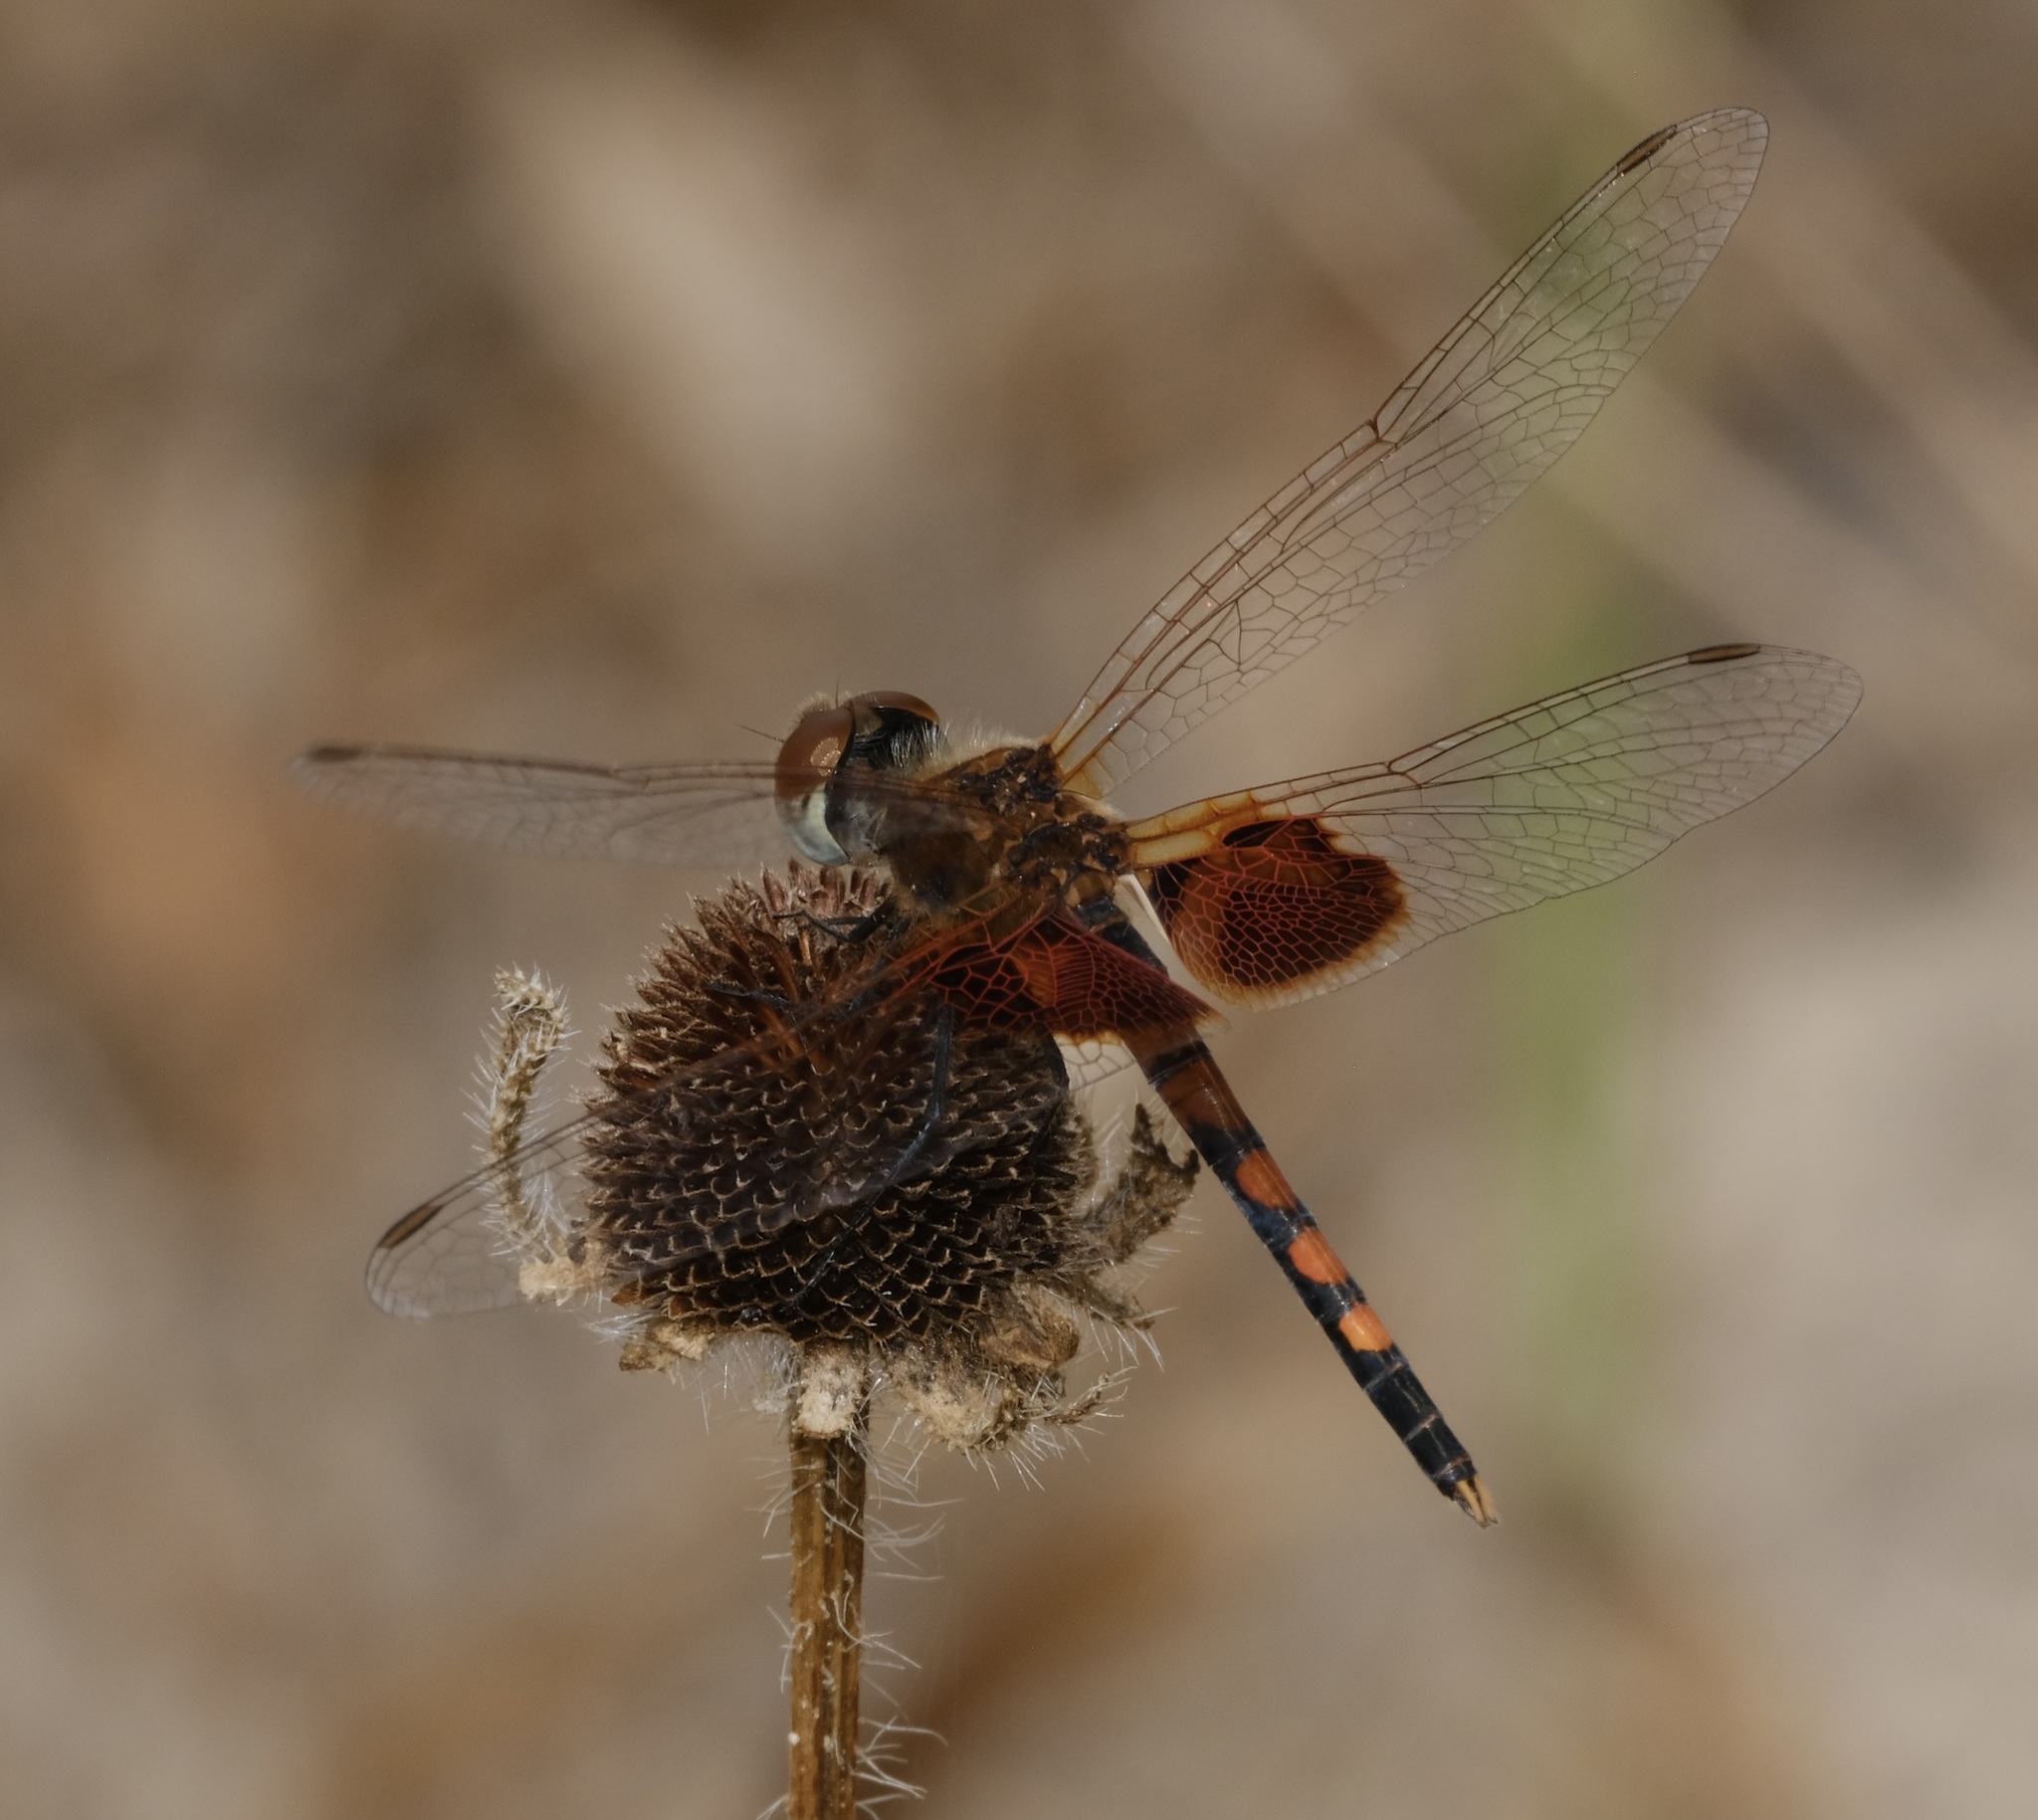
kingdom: Animalia
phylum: Arthropoda
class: Insecta
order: Odonata
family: Libellulidae
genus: Celithemis
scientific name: Celithemis amanda
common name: Amanda's pennant
